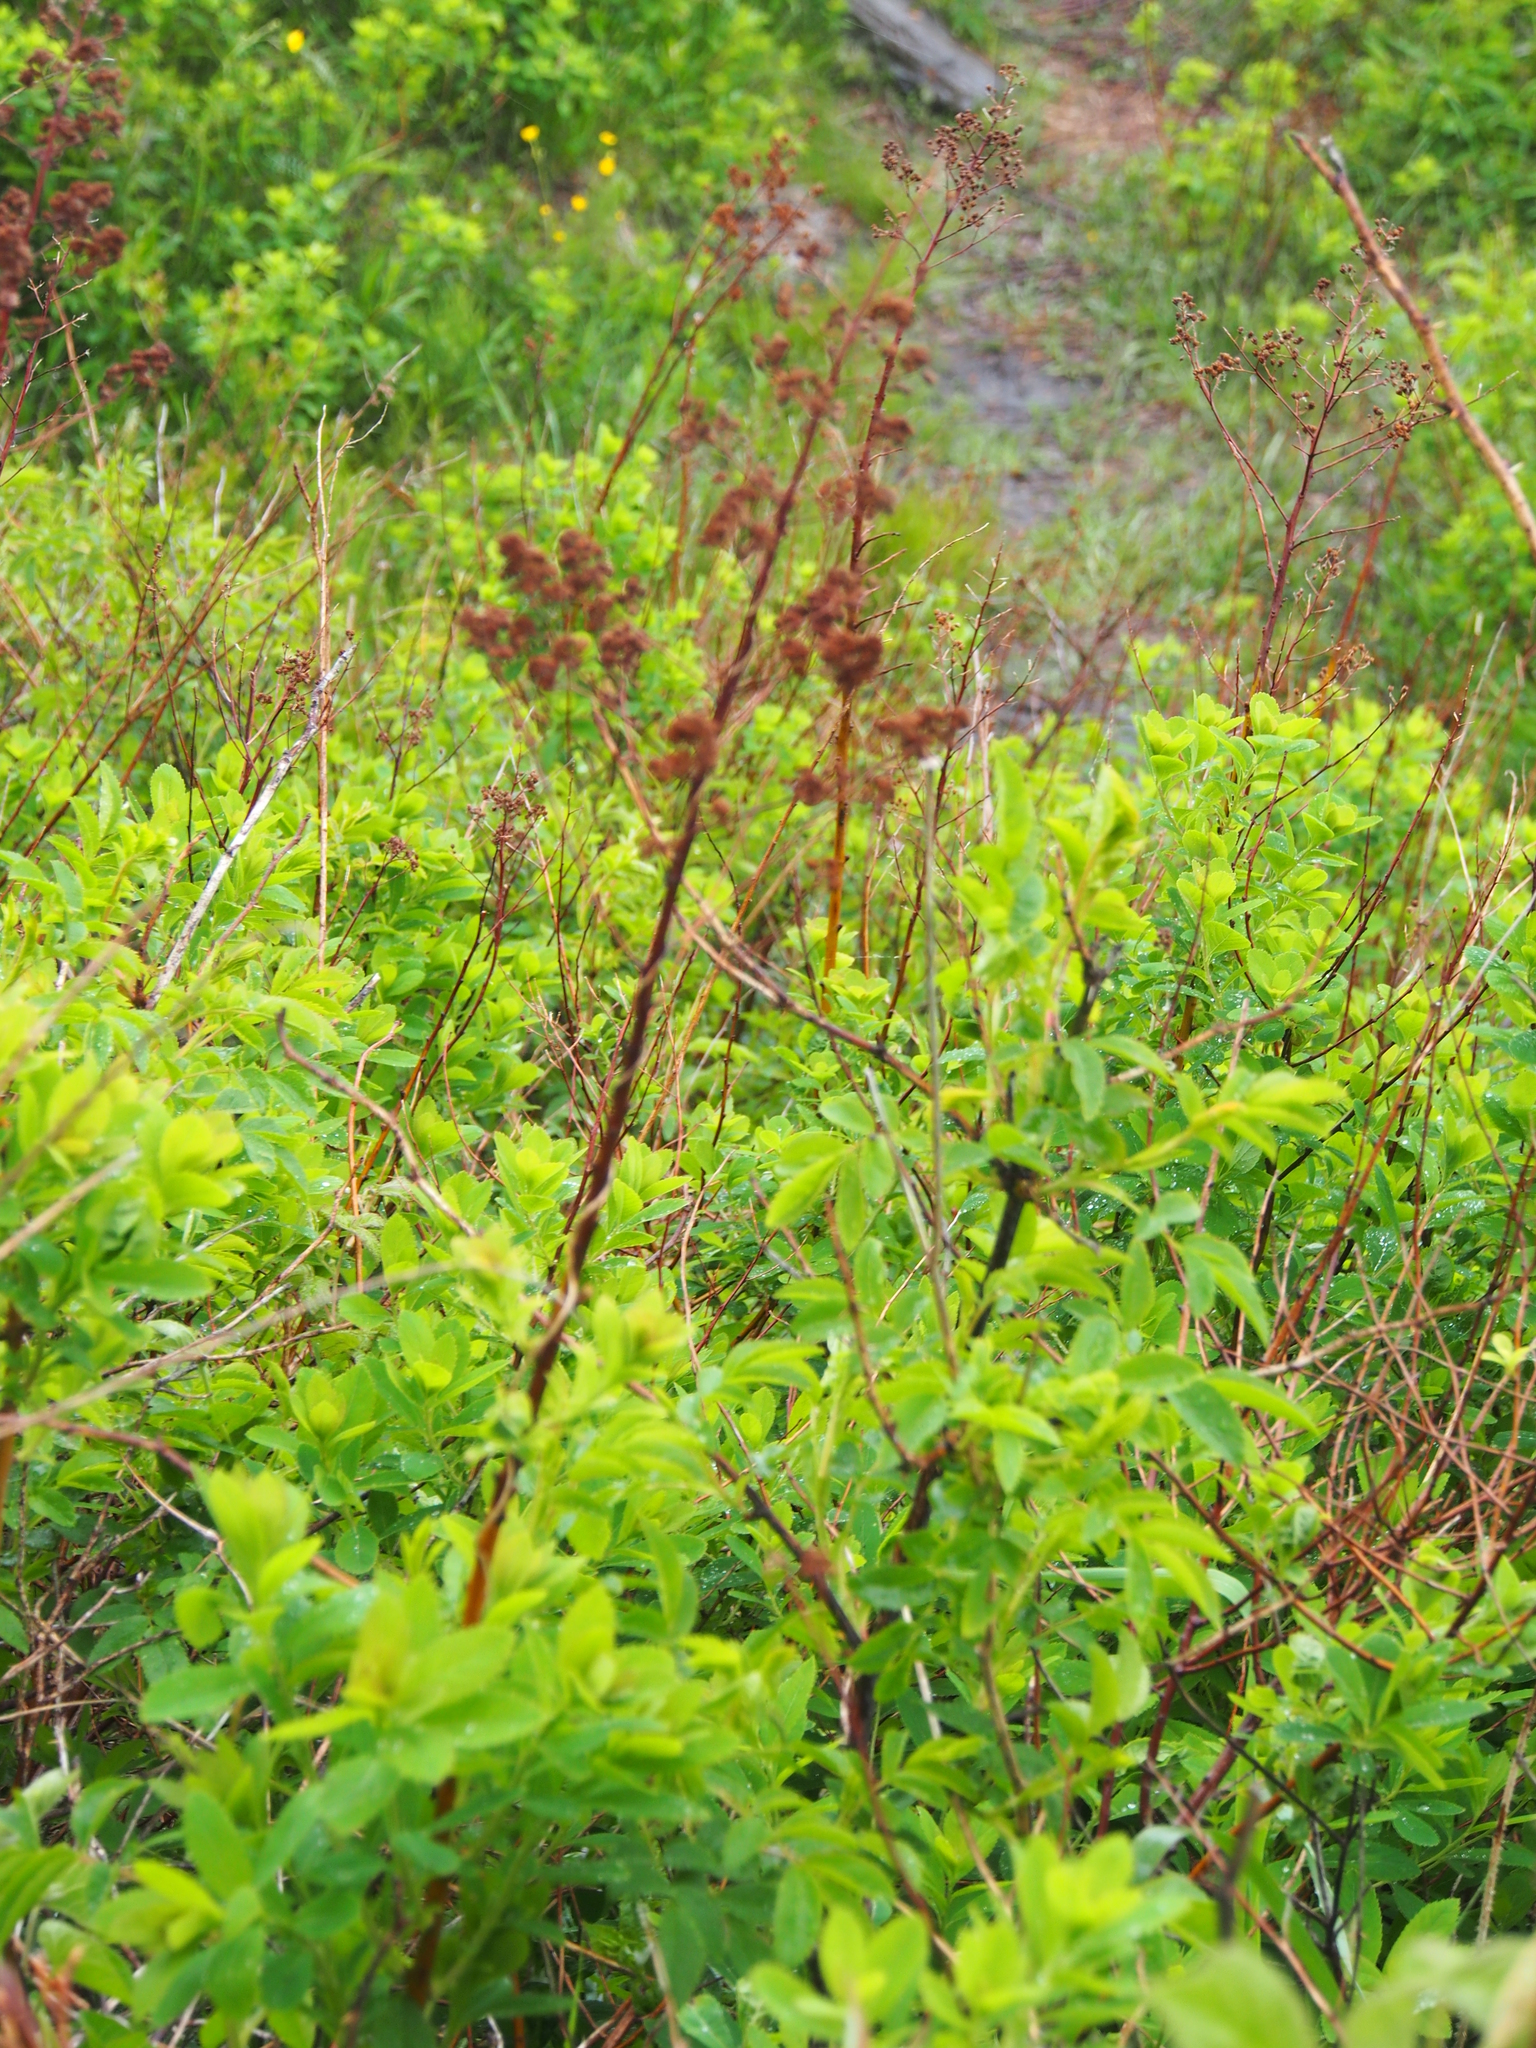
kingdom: Plantae
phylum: Tracheophyta
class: Magnoliopsida
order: Rosales
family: Rosaceae
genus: Spiraea
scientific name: Spiraea alba
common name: Pale bridewort
